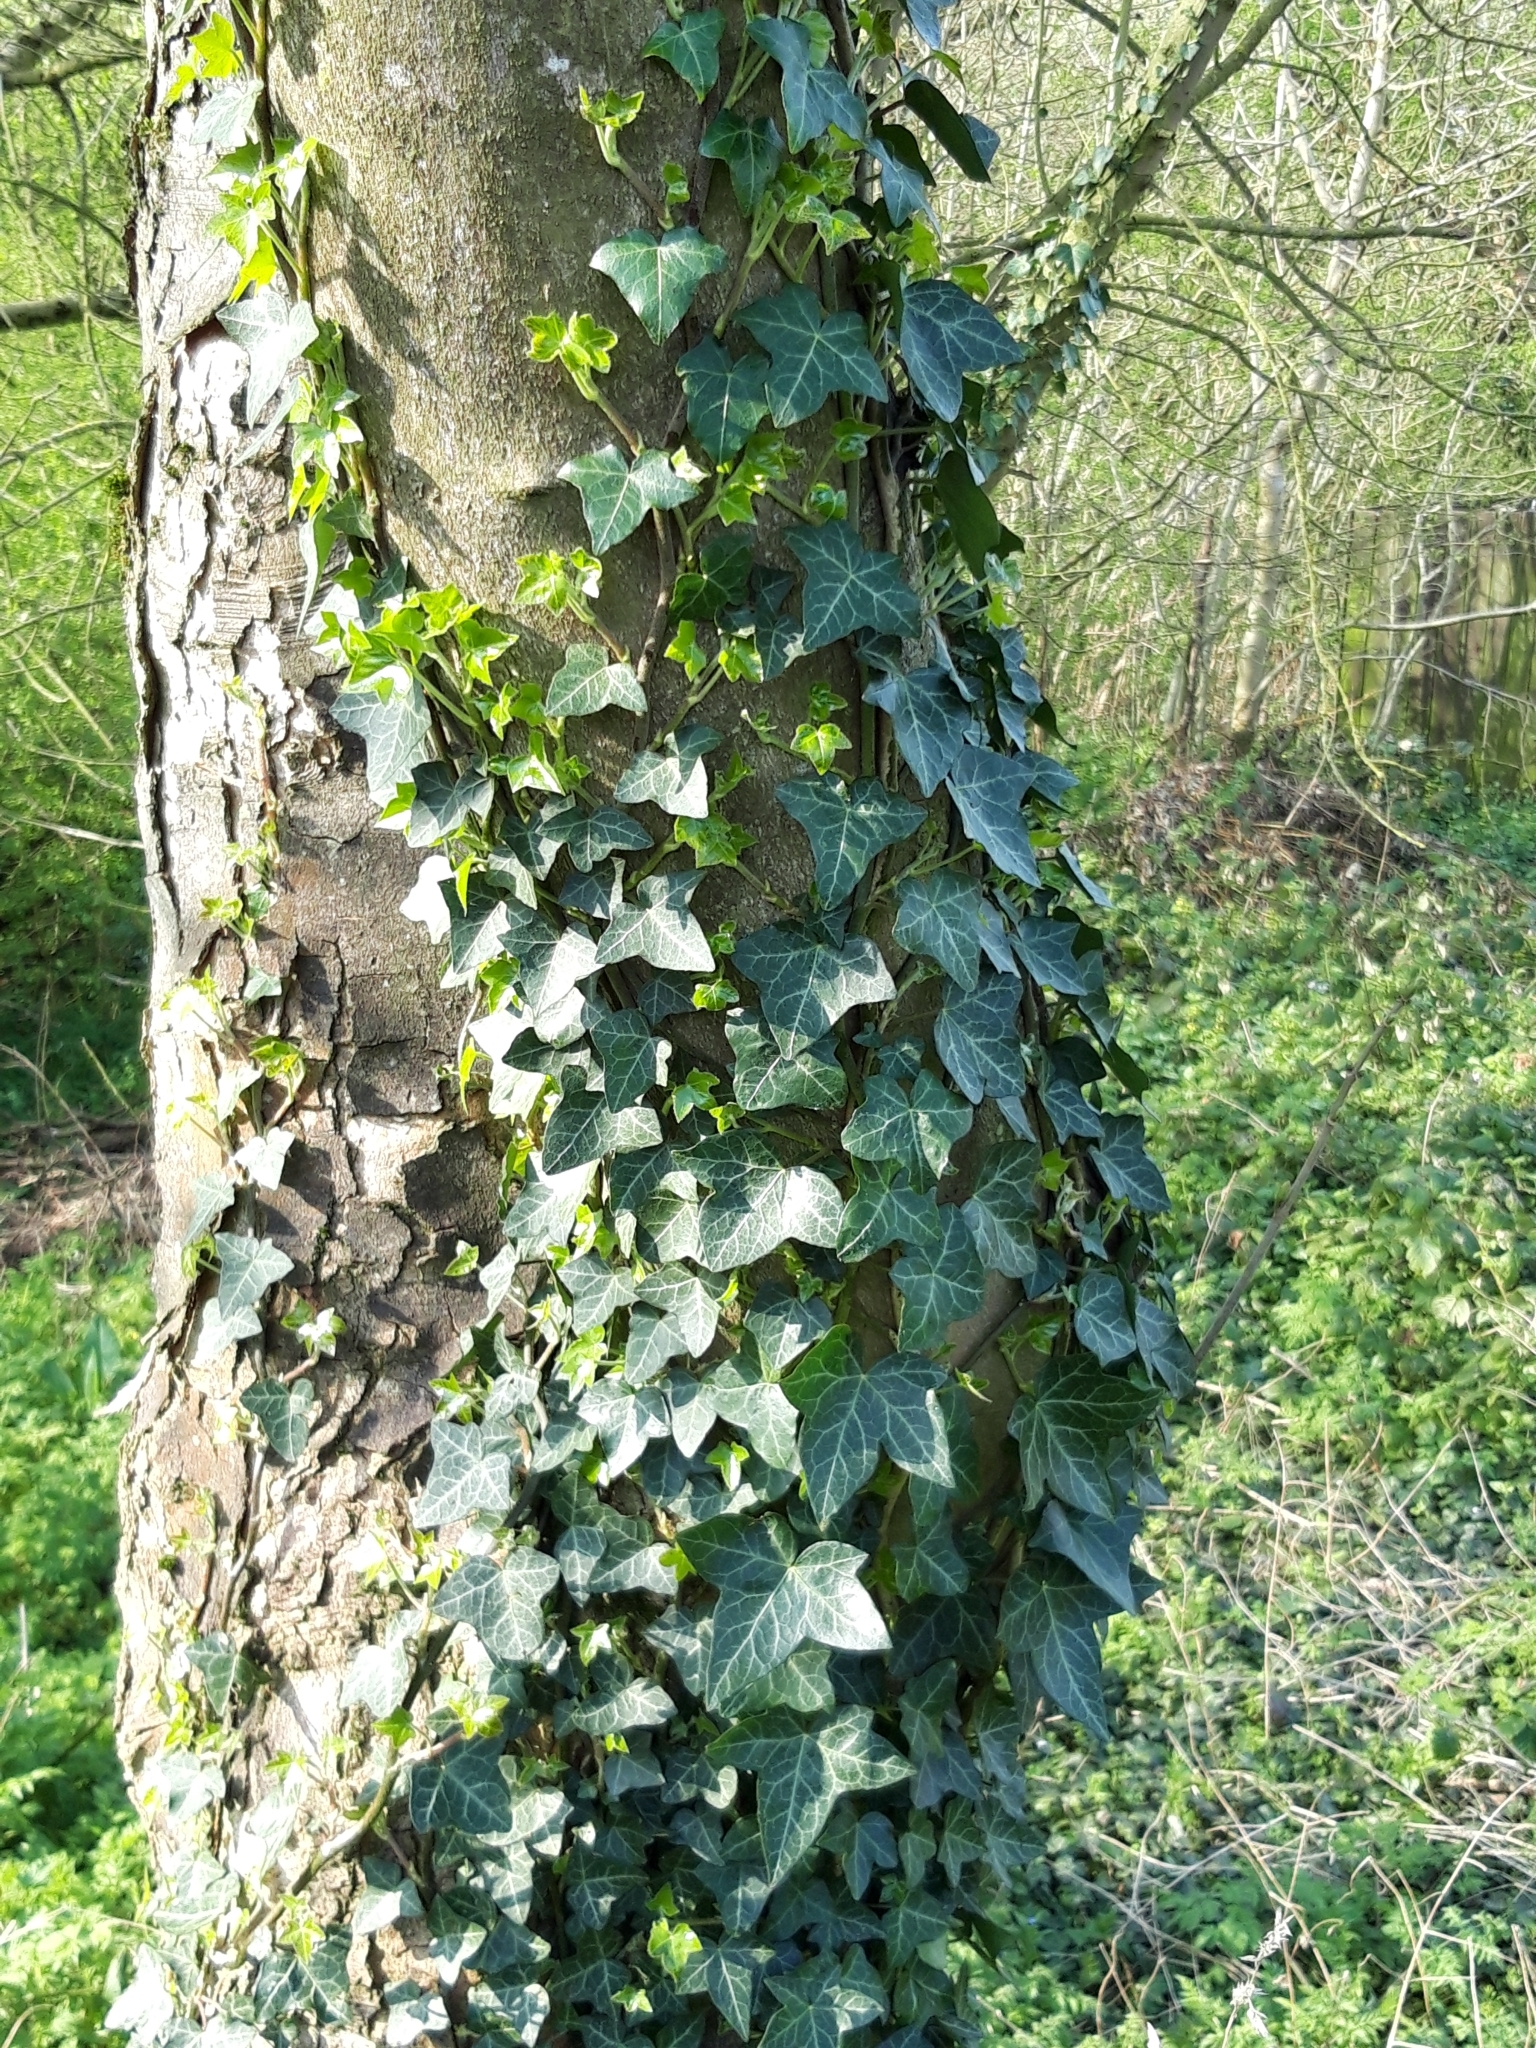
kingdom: Plantae
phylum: Tracheophyta
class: Magnoliopsida
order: Apiales
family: Araliaceae
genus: Hedera
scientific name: Hedera helix
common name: Ivy
